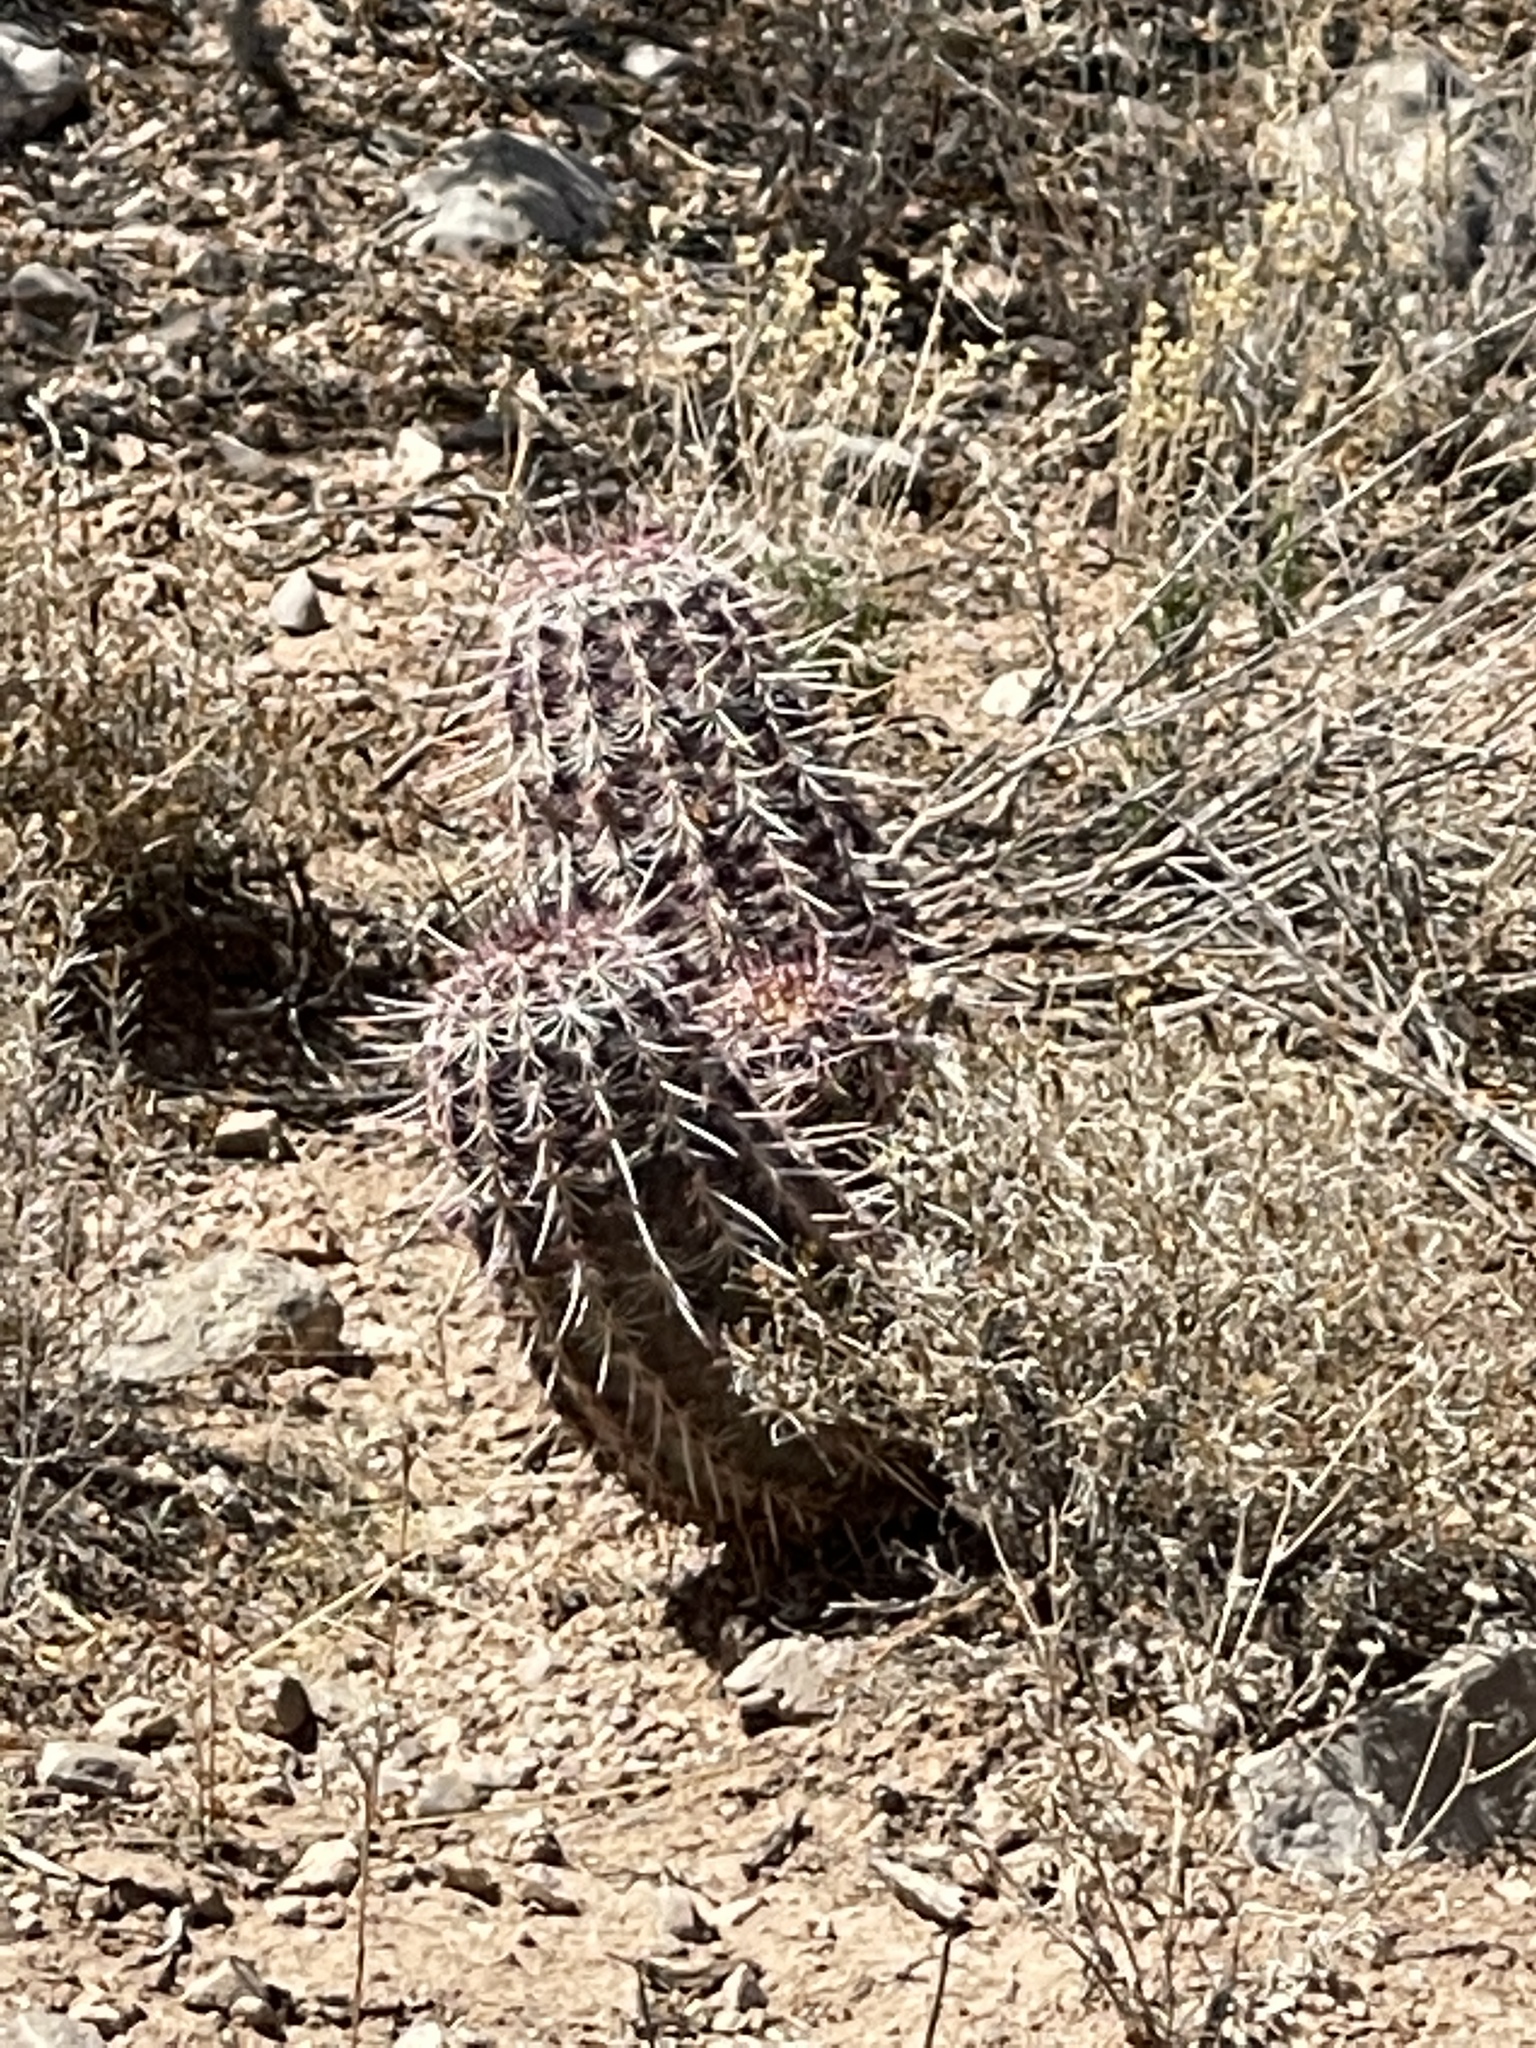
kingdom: Plantae
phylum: Tracheophyta
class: Magnoliopsida
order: Caryophyllales
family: Cactaceae
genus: Echinocereus
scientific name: Echinocereus viridiflorus
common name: Nylon hedgehog cactus
